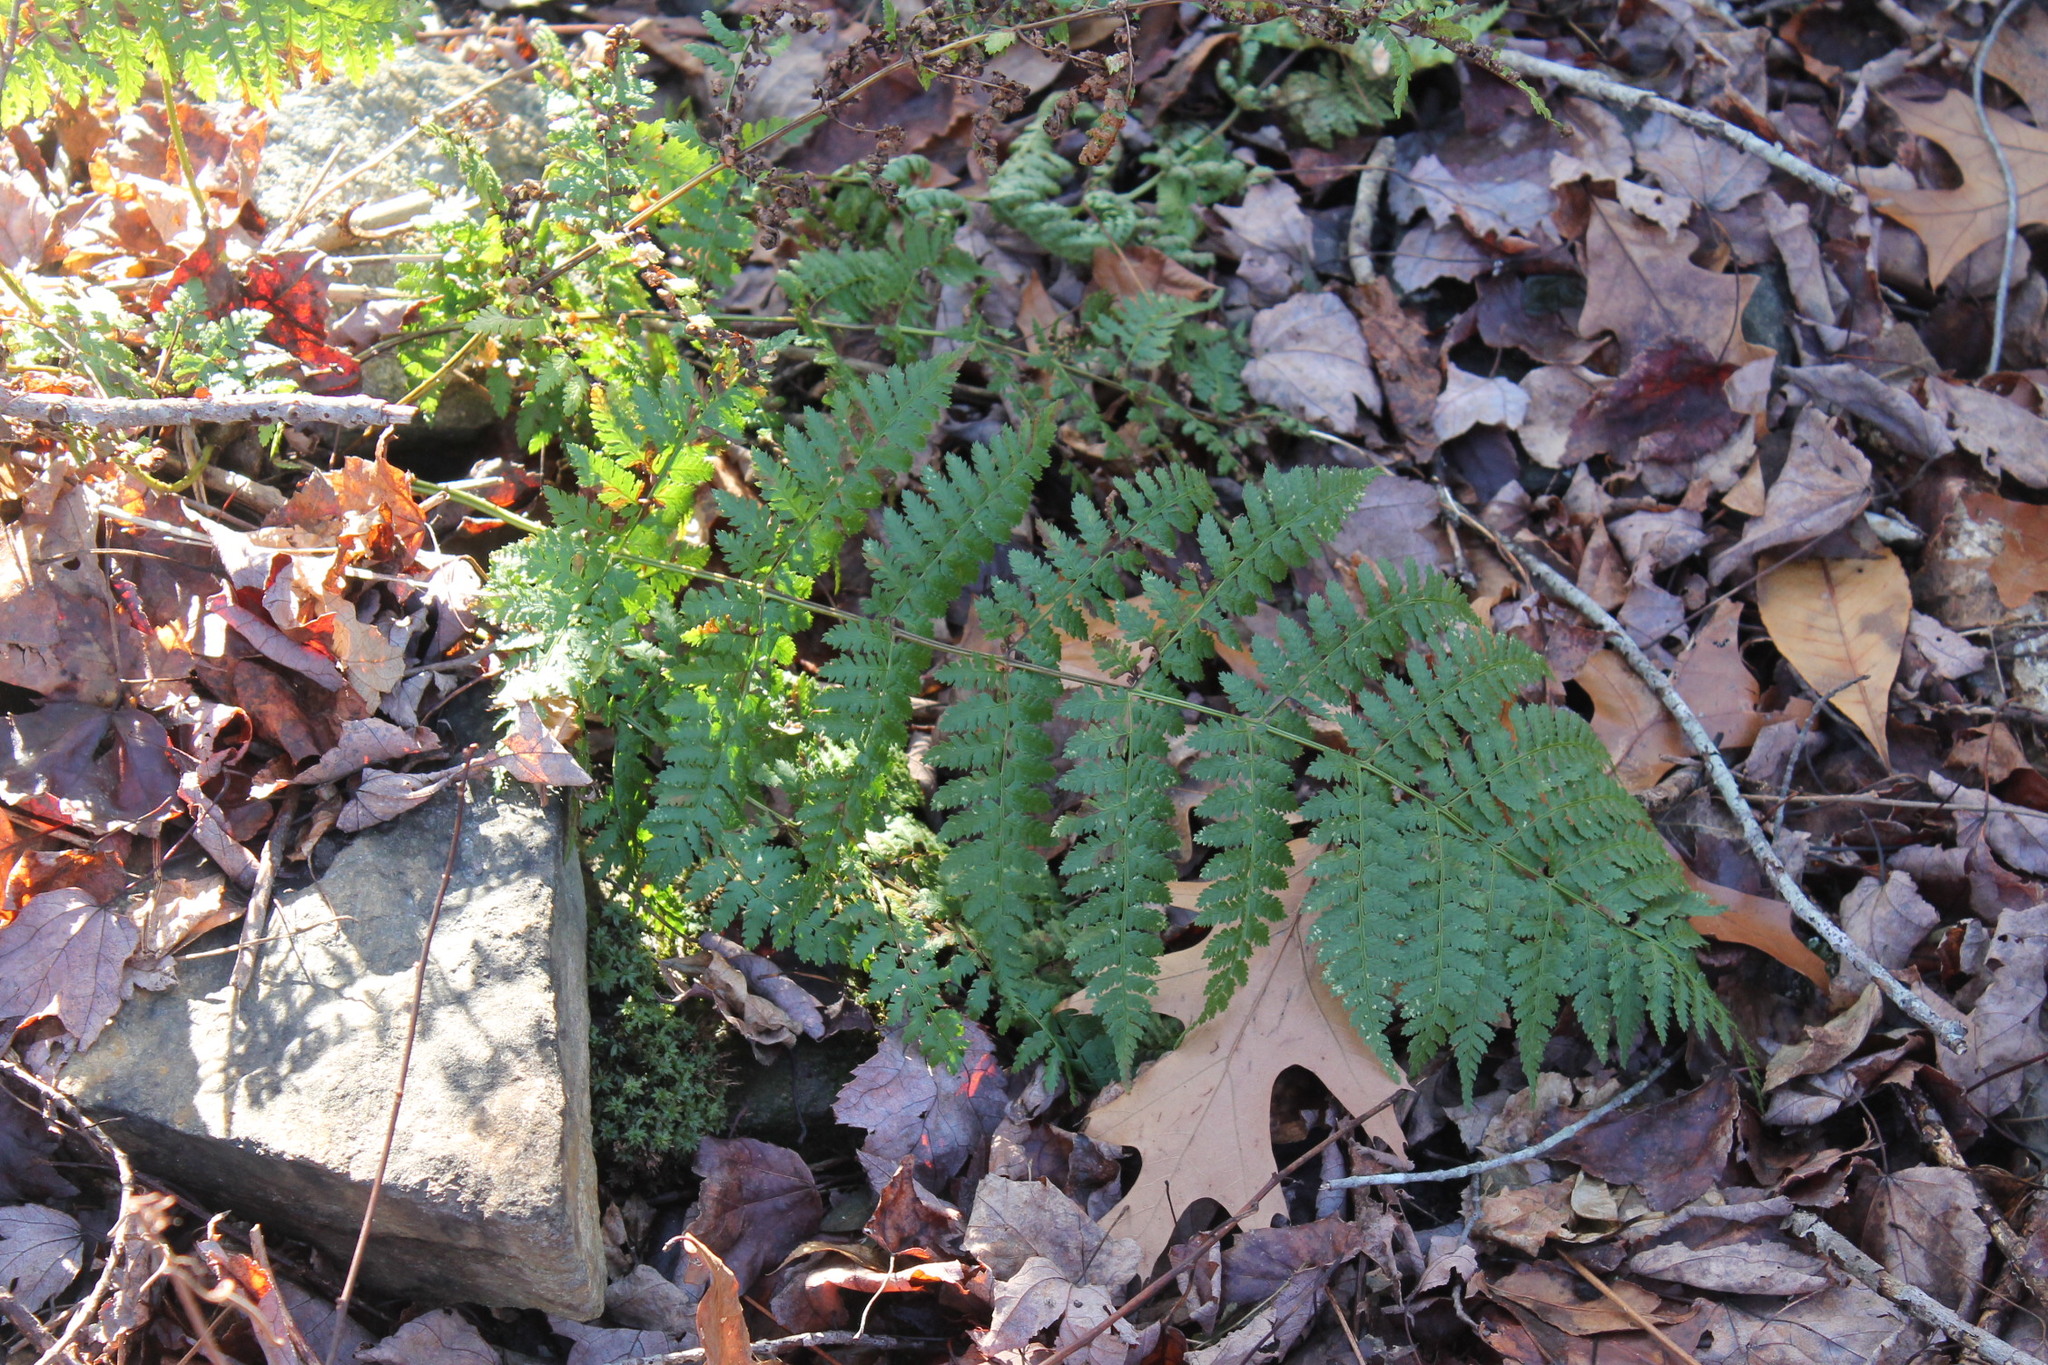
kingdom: Plantae
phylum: Tracheophyta
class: Polypodiopsida
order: Polypodiales
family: Dryopteridaceae
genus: Dryopteris
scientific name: Dryopteris intermedia
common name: Evergreen wood fern
